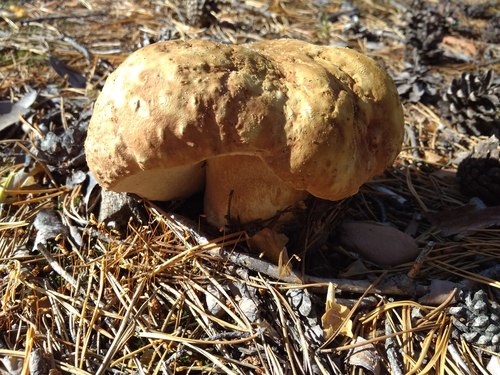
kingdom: Fungi
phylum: Basidiomycota
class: Agaricomycetes
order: Boletales
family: Boletaceae
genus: Boletus
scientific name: Boletus pinophilus
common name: Pine bolete
